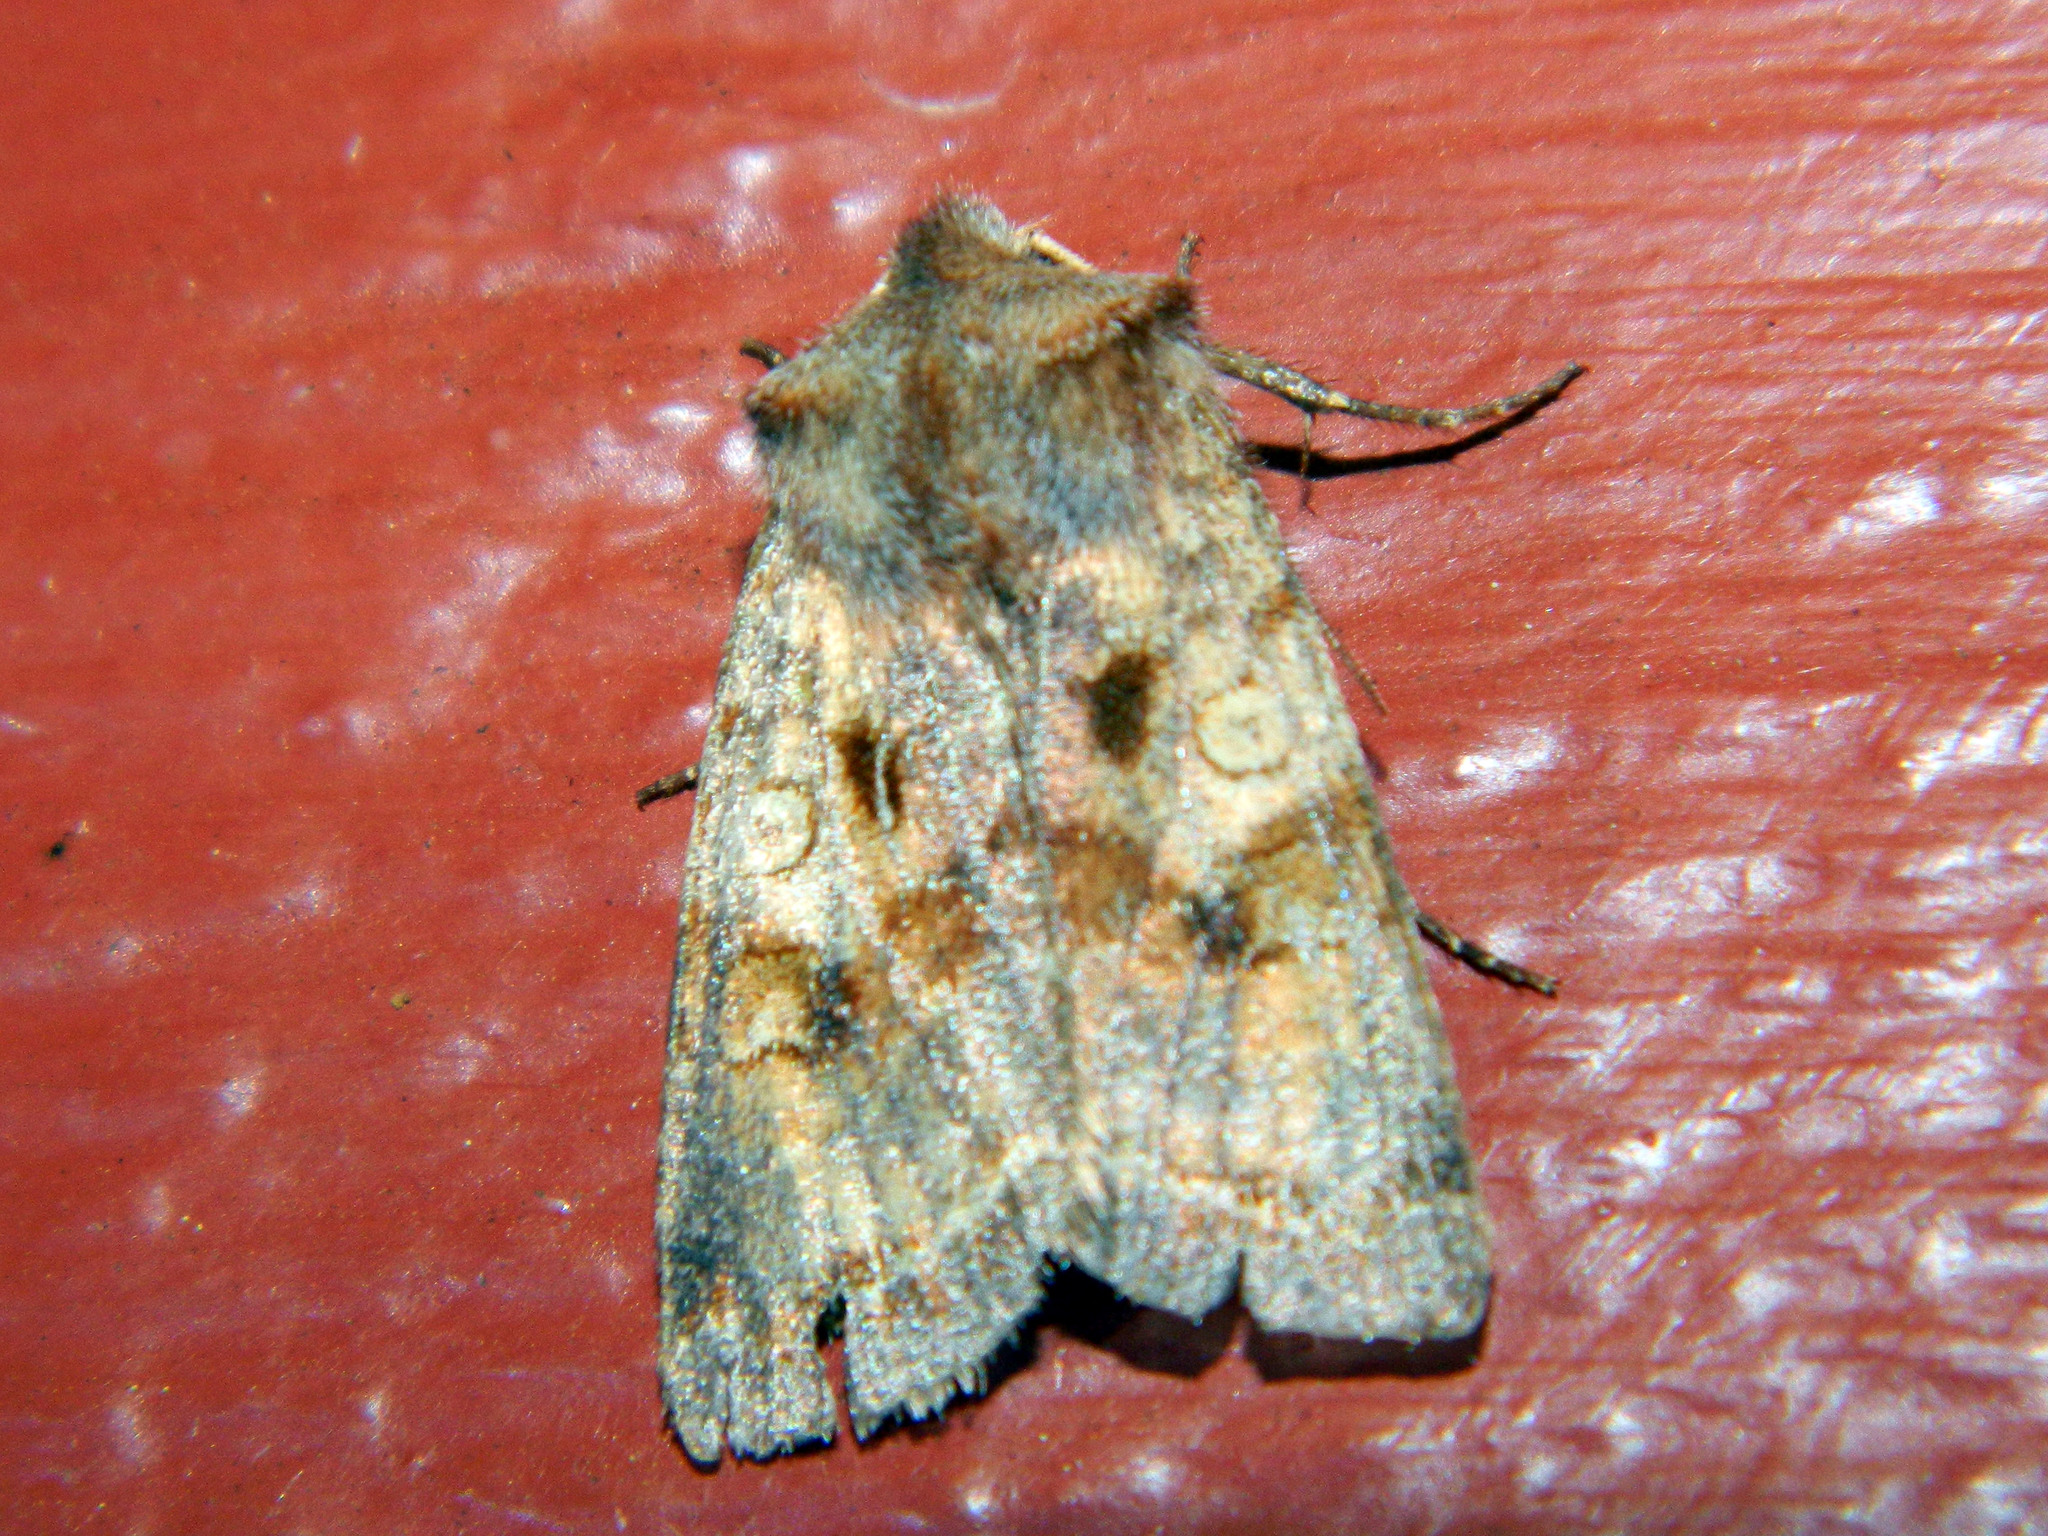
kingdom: Animalia
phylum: Arthropoda
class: Insecta
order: Lepidoptera
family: Noctuidae
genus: Cerastis
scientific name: Cerastis salicarum
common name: Willow dart
